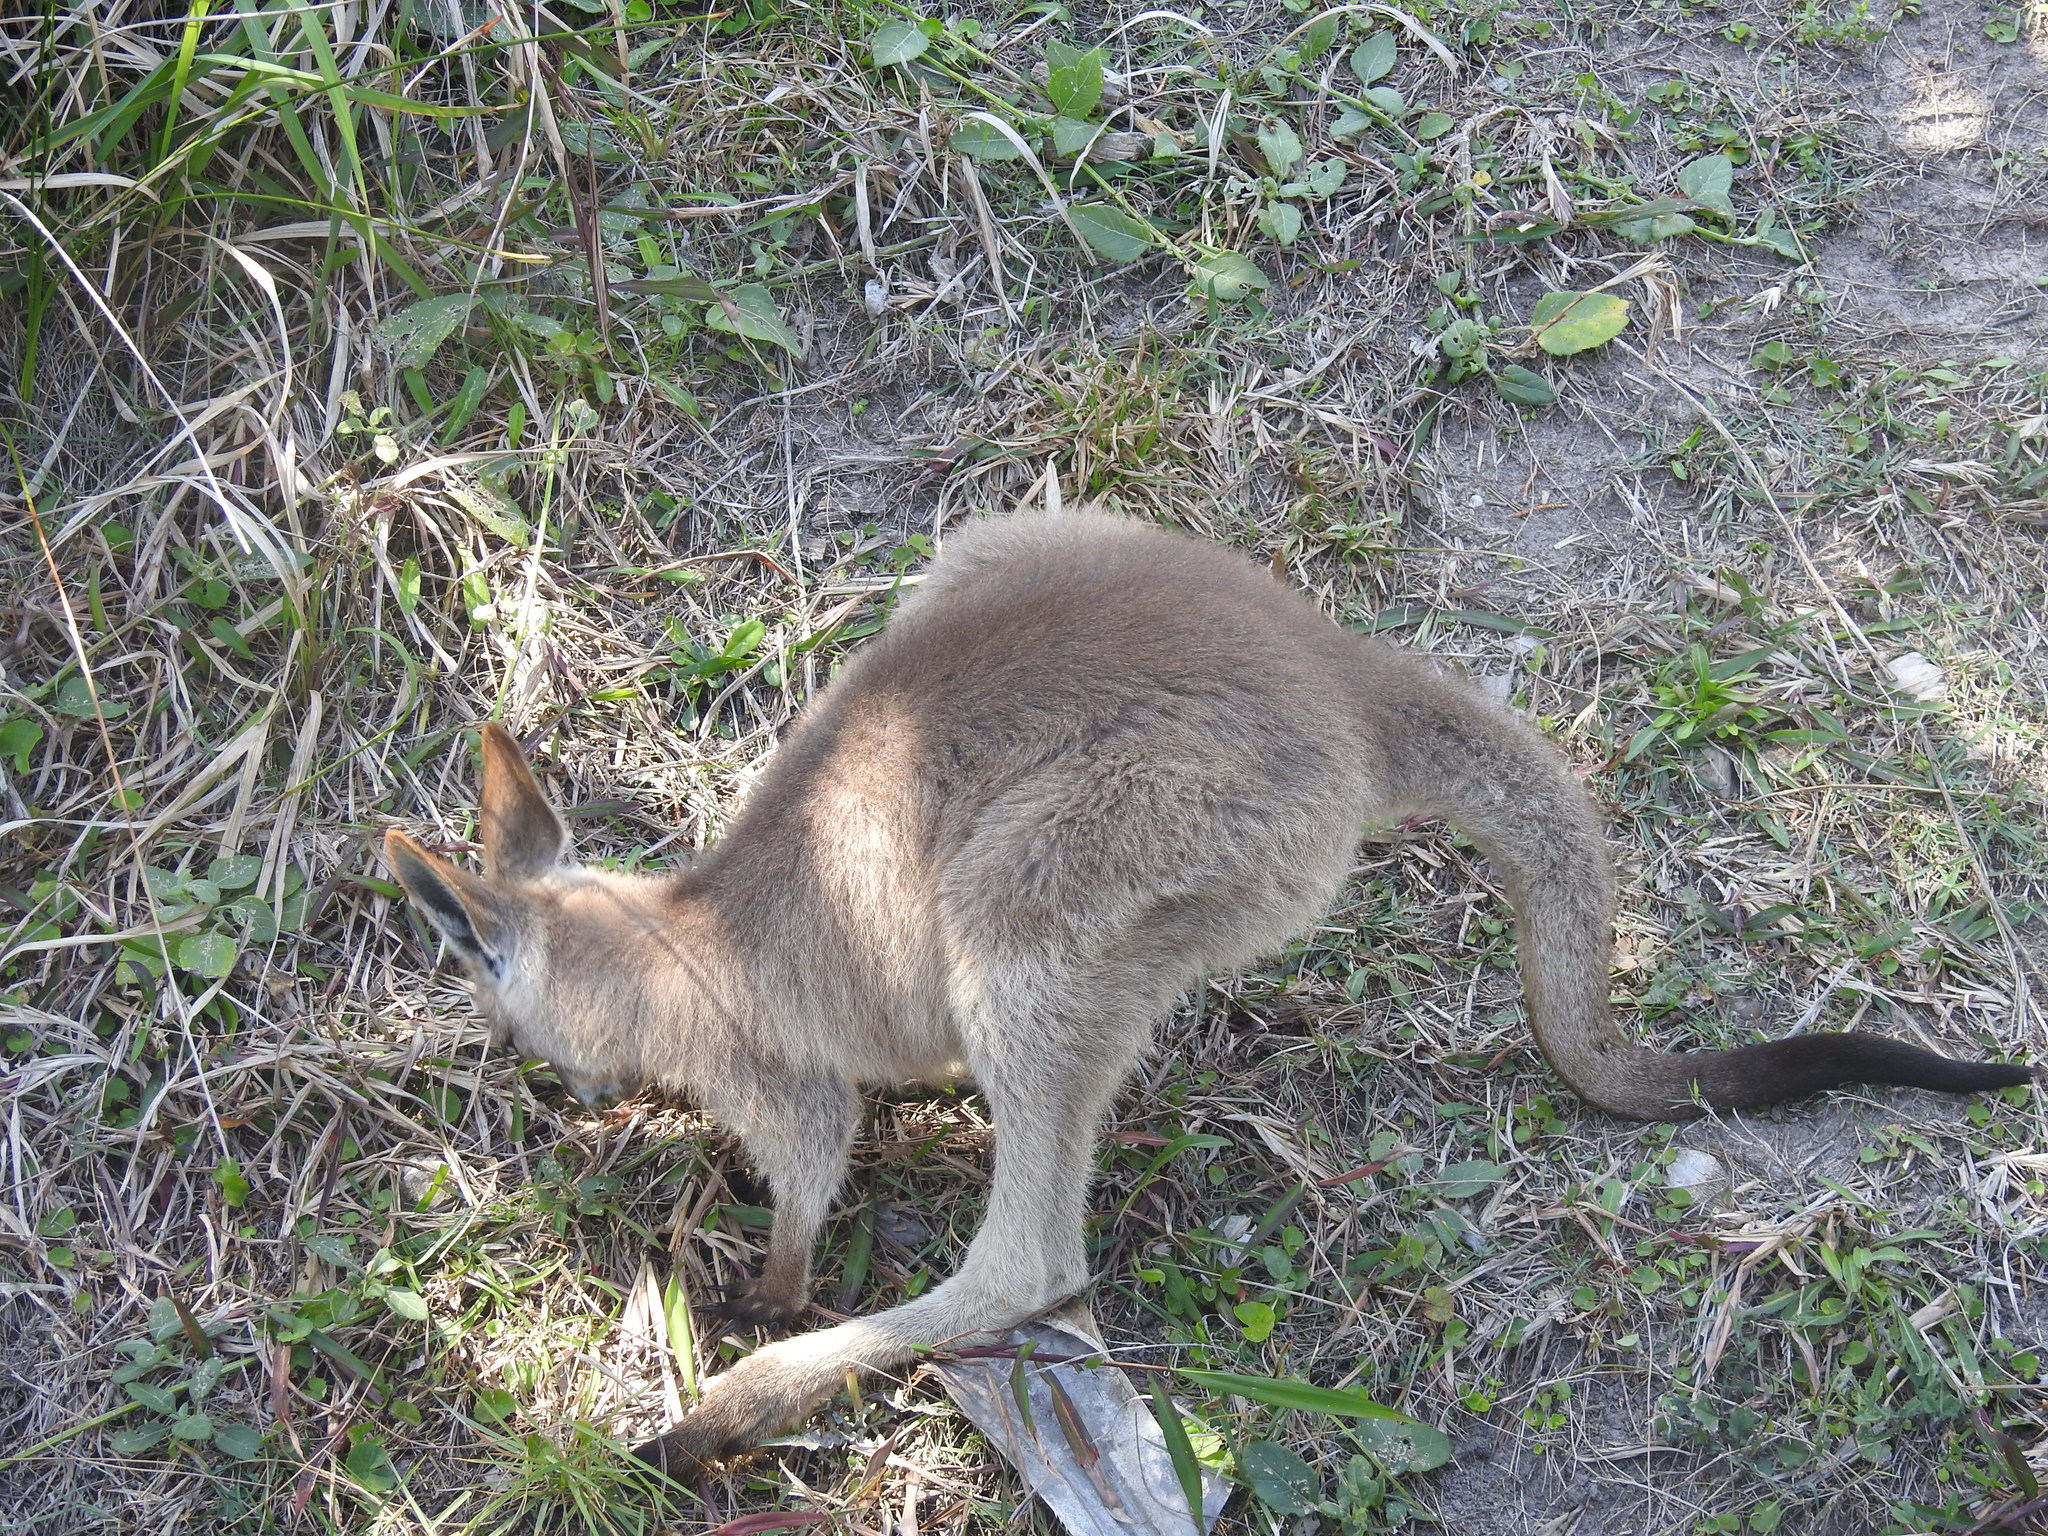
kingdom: Animalia
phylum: Chordata
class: Mammalia
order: Diprotodontia
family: Macropodidae
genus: Macropus
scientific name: Macropus giganteus
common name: Eastern grey kangaroo
